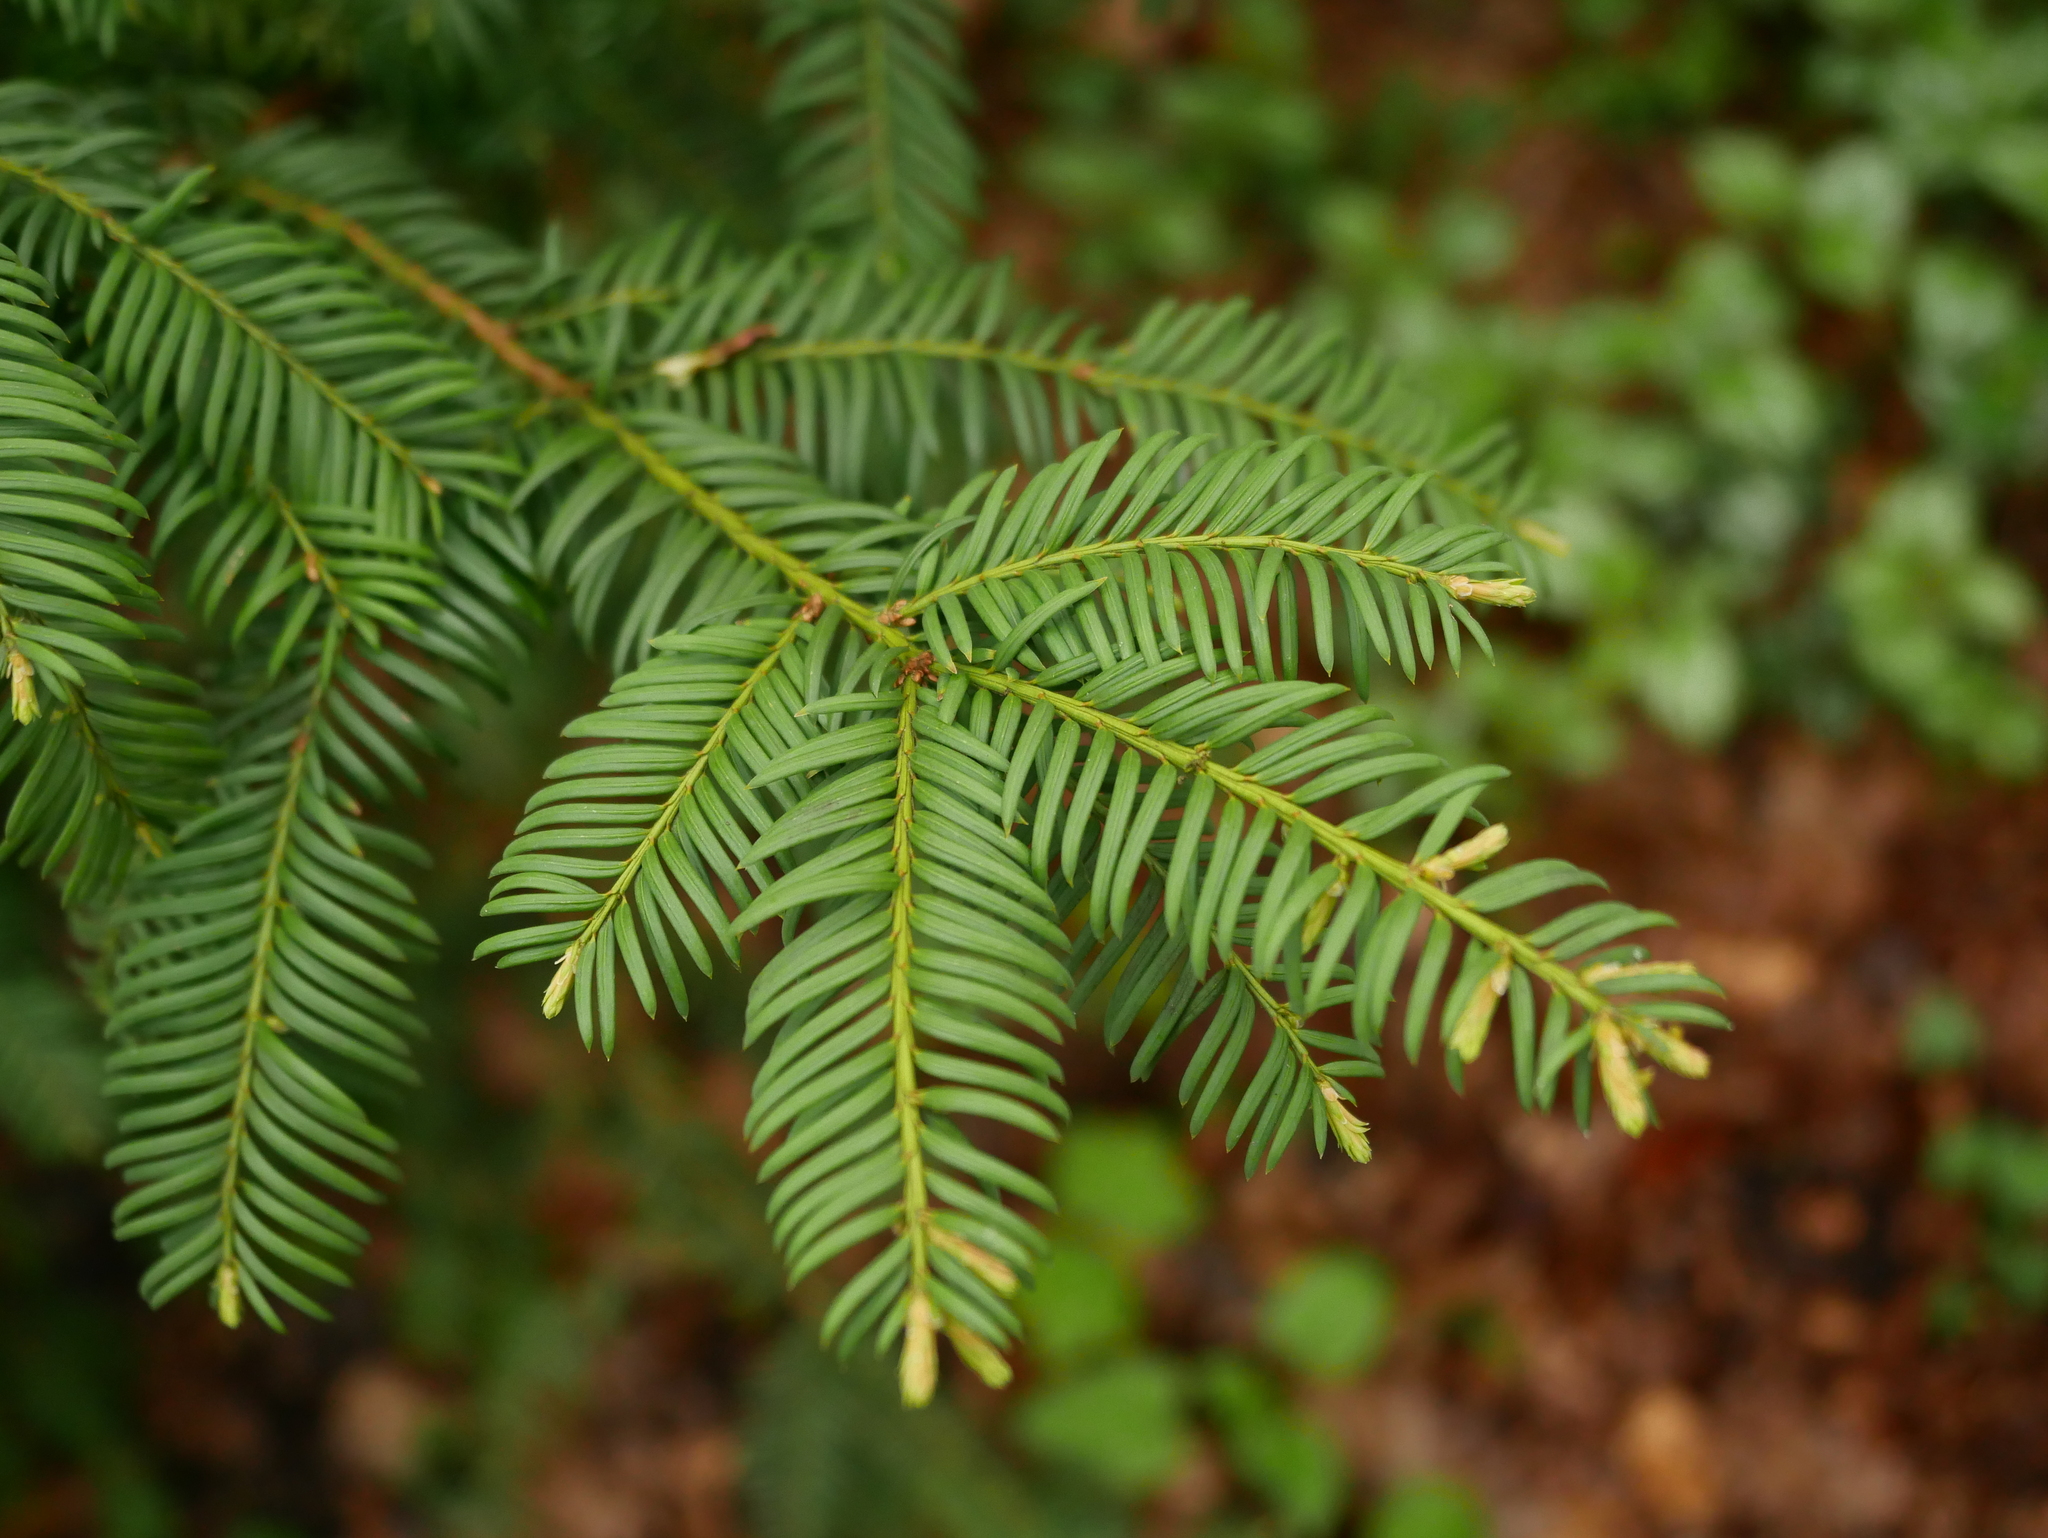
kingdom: Plantae
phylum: Tracheophyta
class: Pinopsida
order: Pinales
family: Taxaceae
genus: Taxus
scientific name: Taxus baccata
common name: Yew
